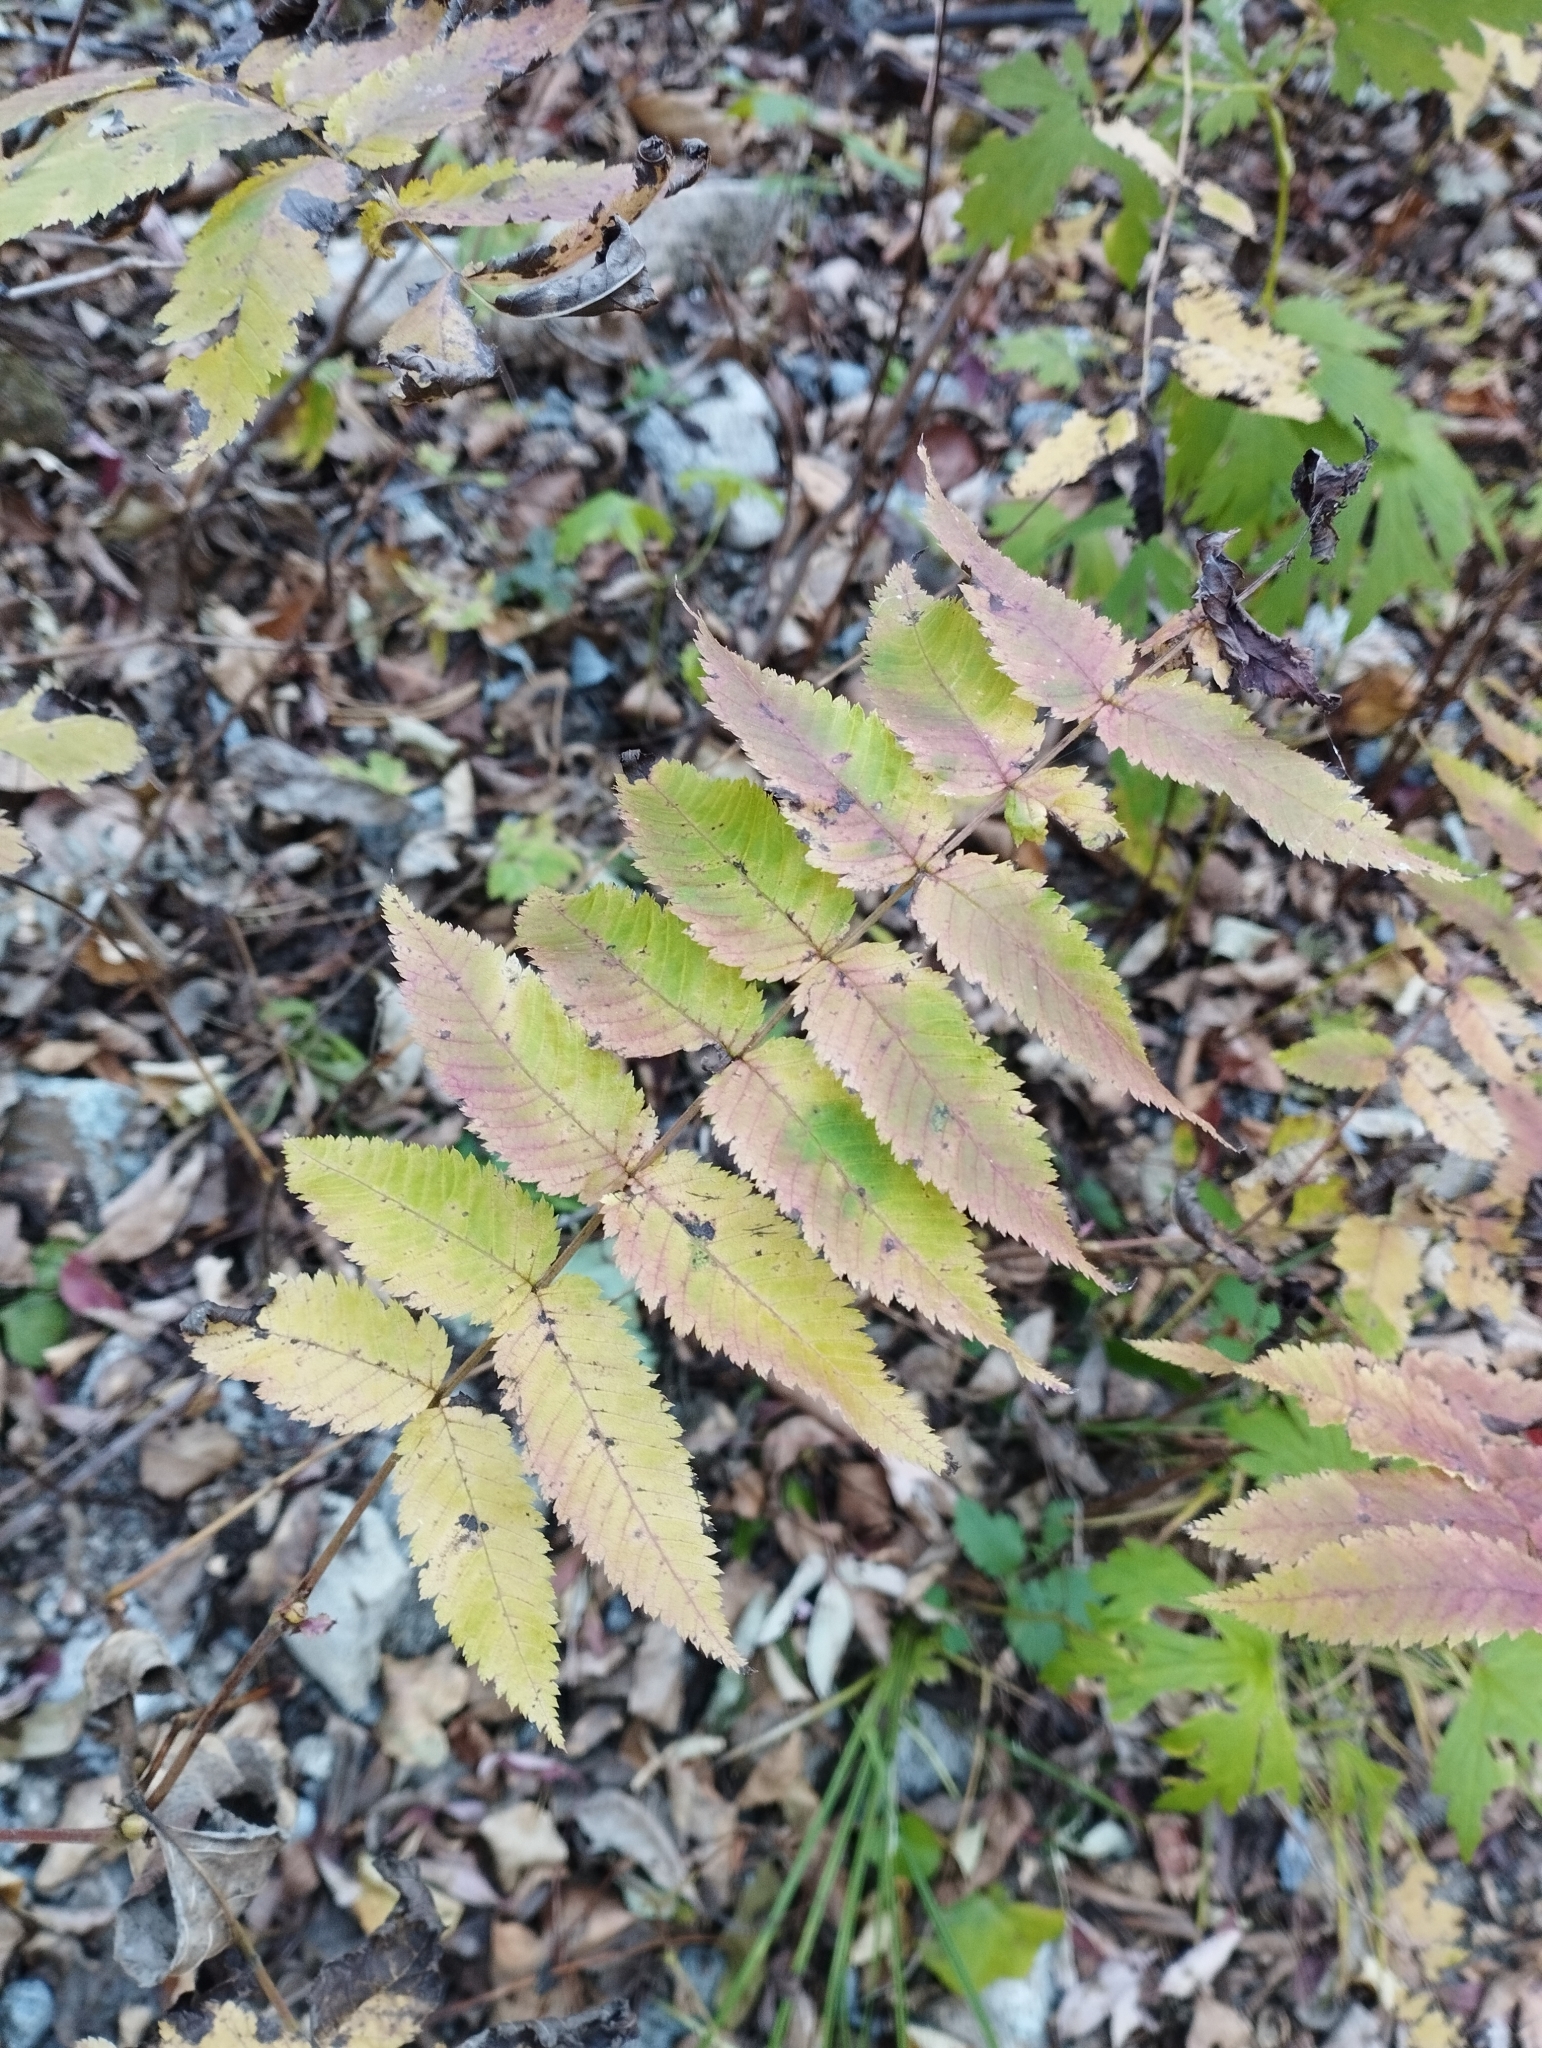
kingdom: Plantae
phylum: Tracheophyta
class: Magnoliopsida
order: Rosales
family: Rosaceae
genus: Sorbaria
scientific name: Sorbaria sorbifolia
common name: False spiraea
